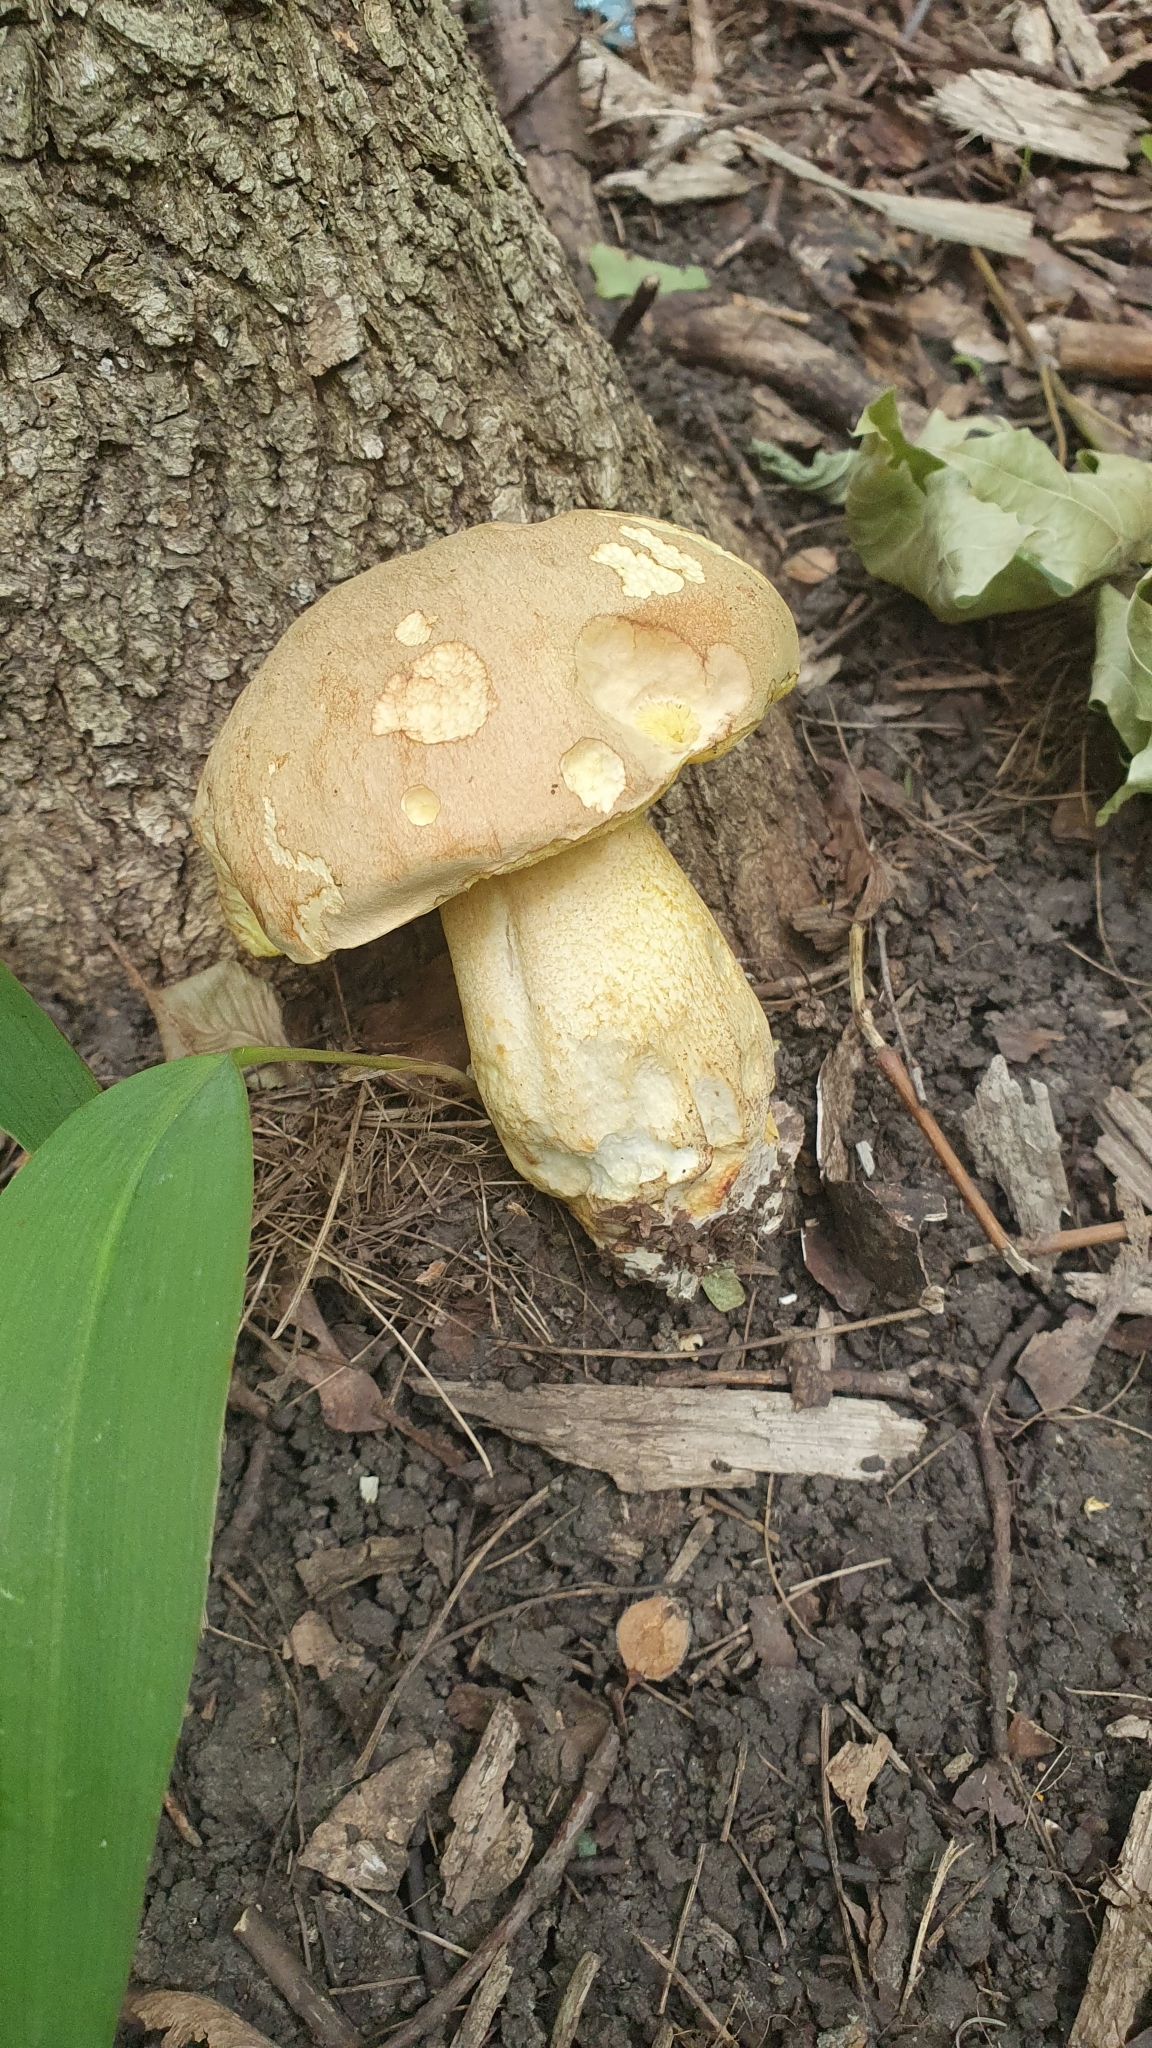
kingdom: Fungi
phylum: Basidiomycota
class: Agaricomycetes
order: Boletales
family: Boletaceae
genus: Boletus
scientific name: Boletus reticulatus
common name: Summer bolete
